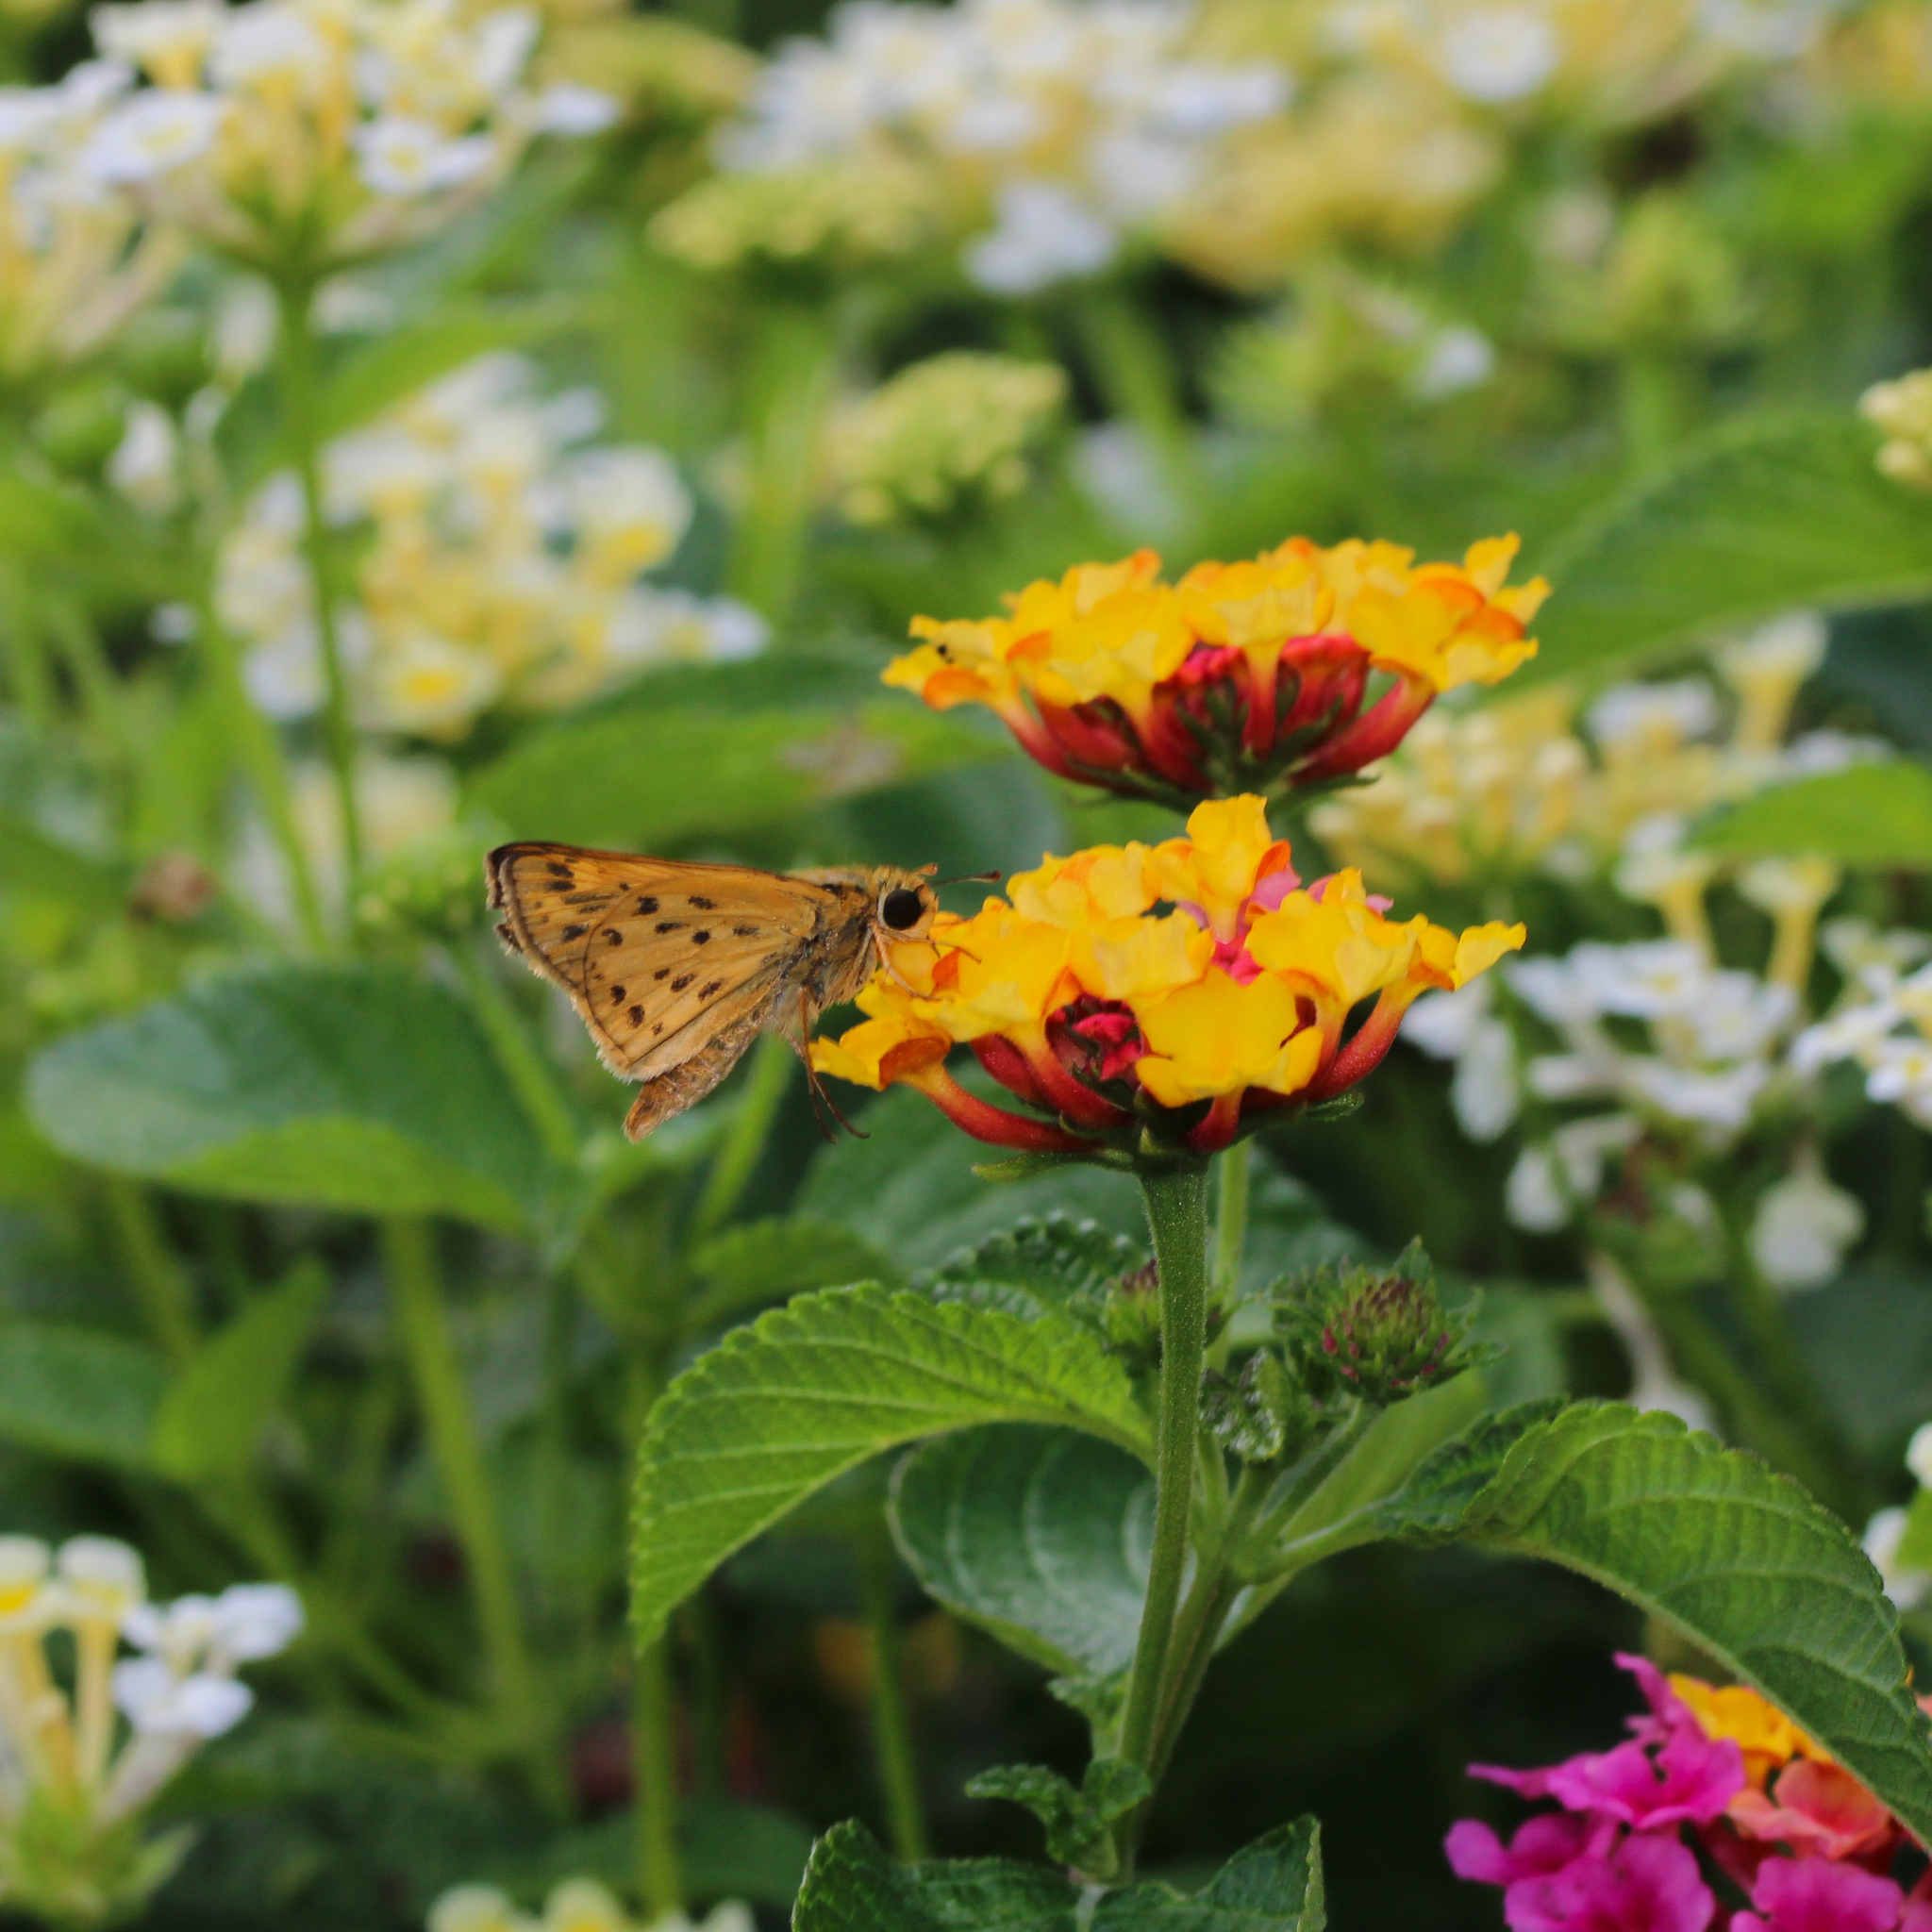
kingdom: Animalia
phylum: Arthropoda
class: Insecta
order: Lepidoptera
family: Hesperiidae
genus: Hylephila
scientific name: Hylephila phyleus
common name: Fiery skipper
